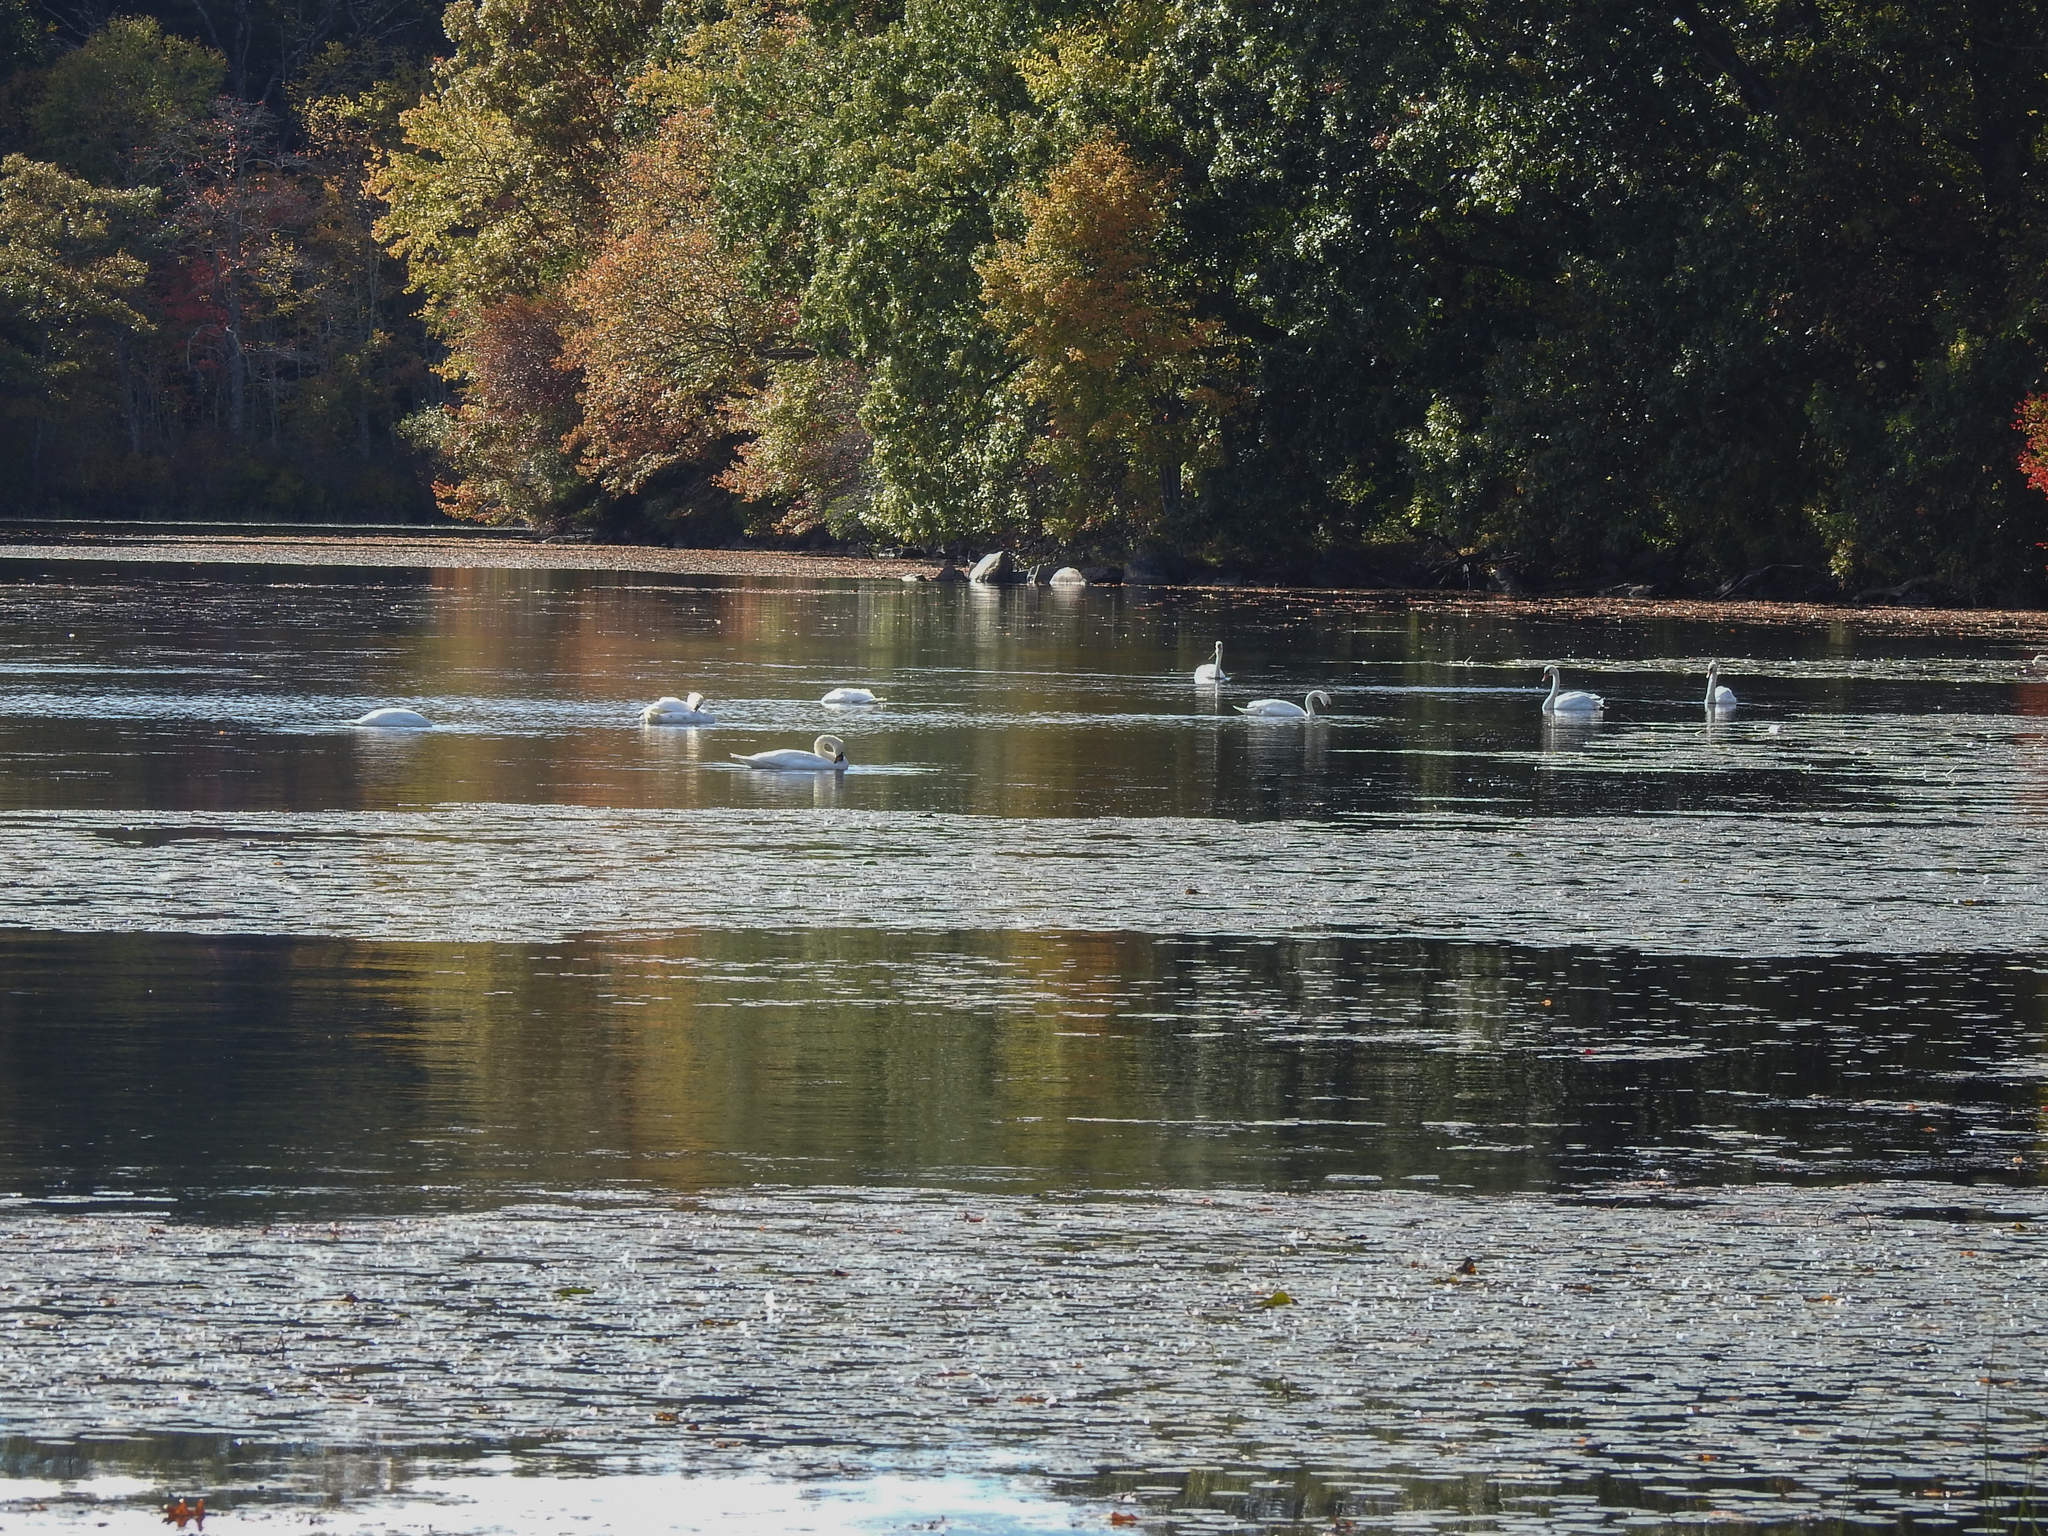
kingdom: Animalia
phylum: Chordata
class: Aves
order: Anseriformes
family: Anatidae
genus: Cygnus
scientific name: Cygnus olor
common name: Mute swan
